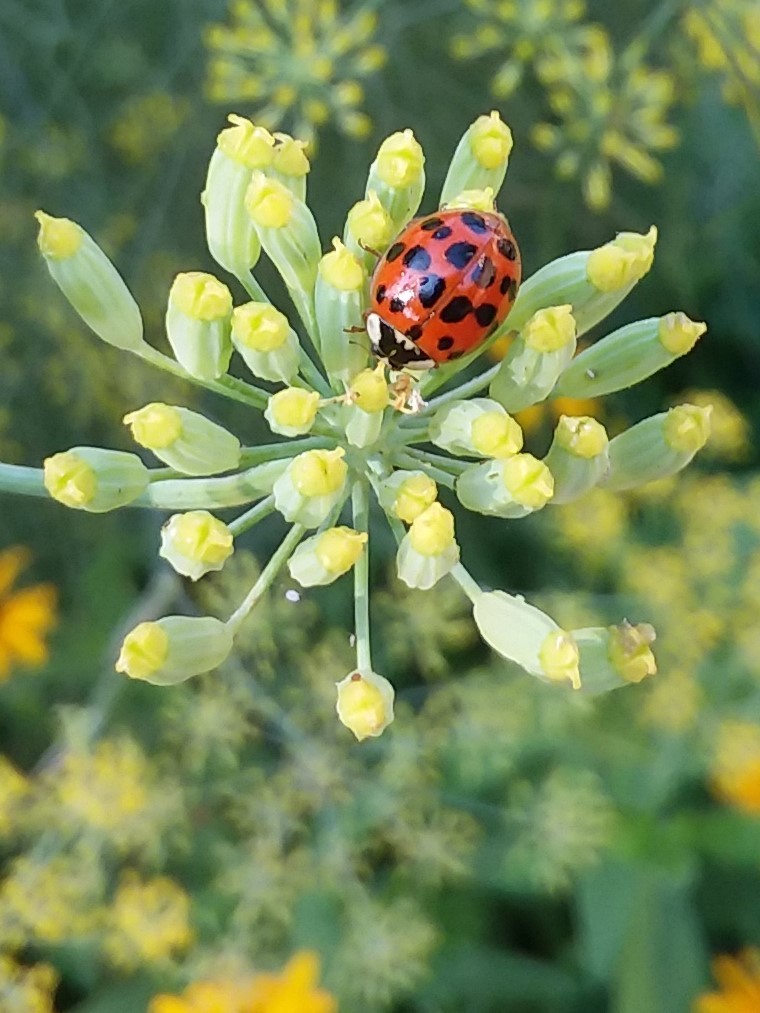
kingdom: Animalia
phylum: Arthropoda
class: Insecta
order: Coleoptera
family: Coccinellidae
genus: Harmonia
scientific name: Harmonia axyridis
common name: Harlequin ladybird
